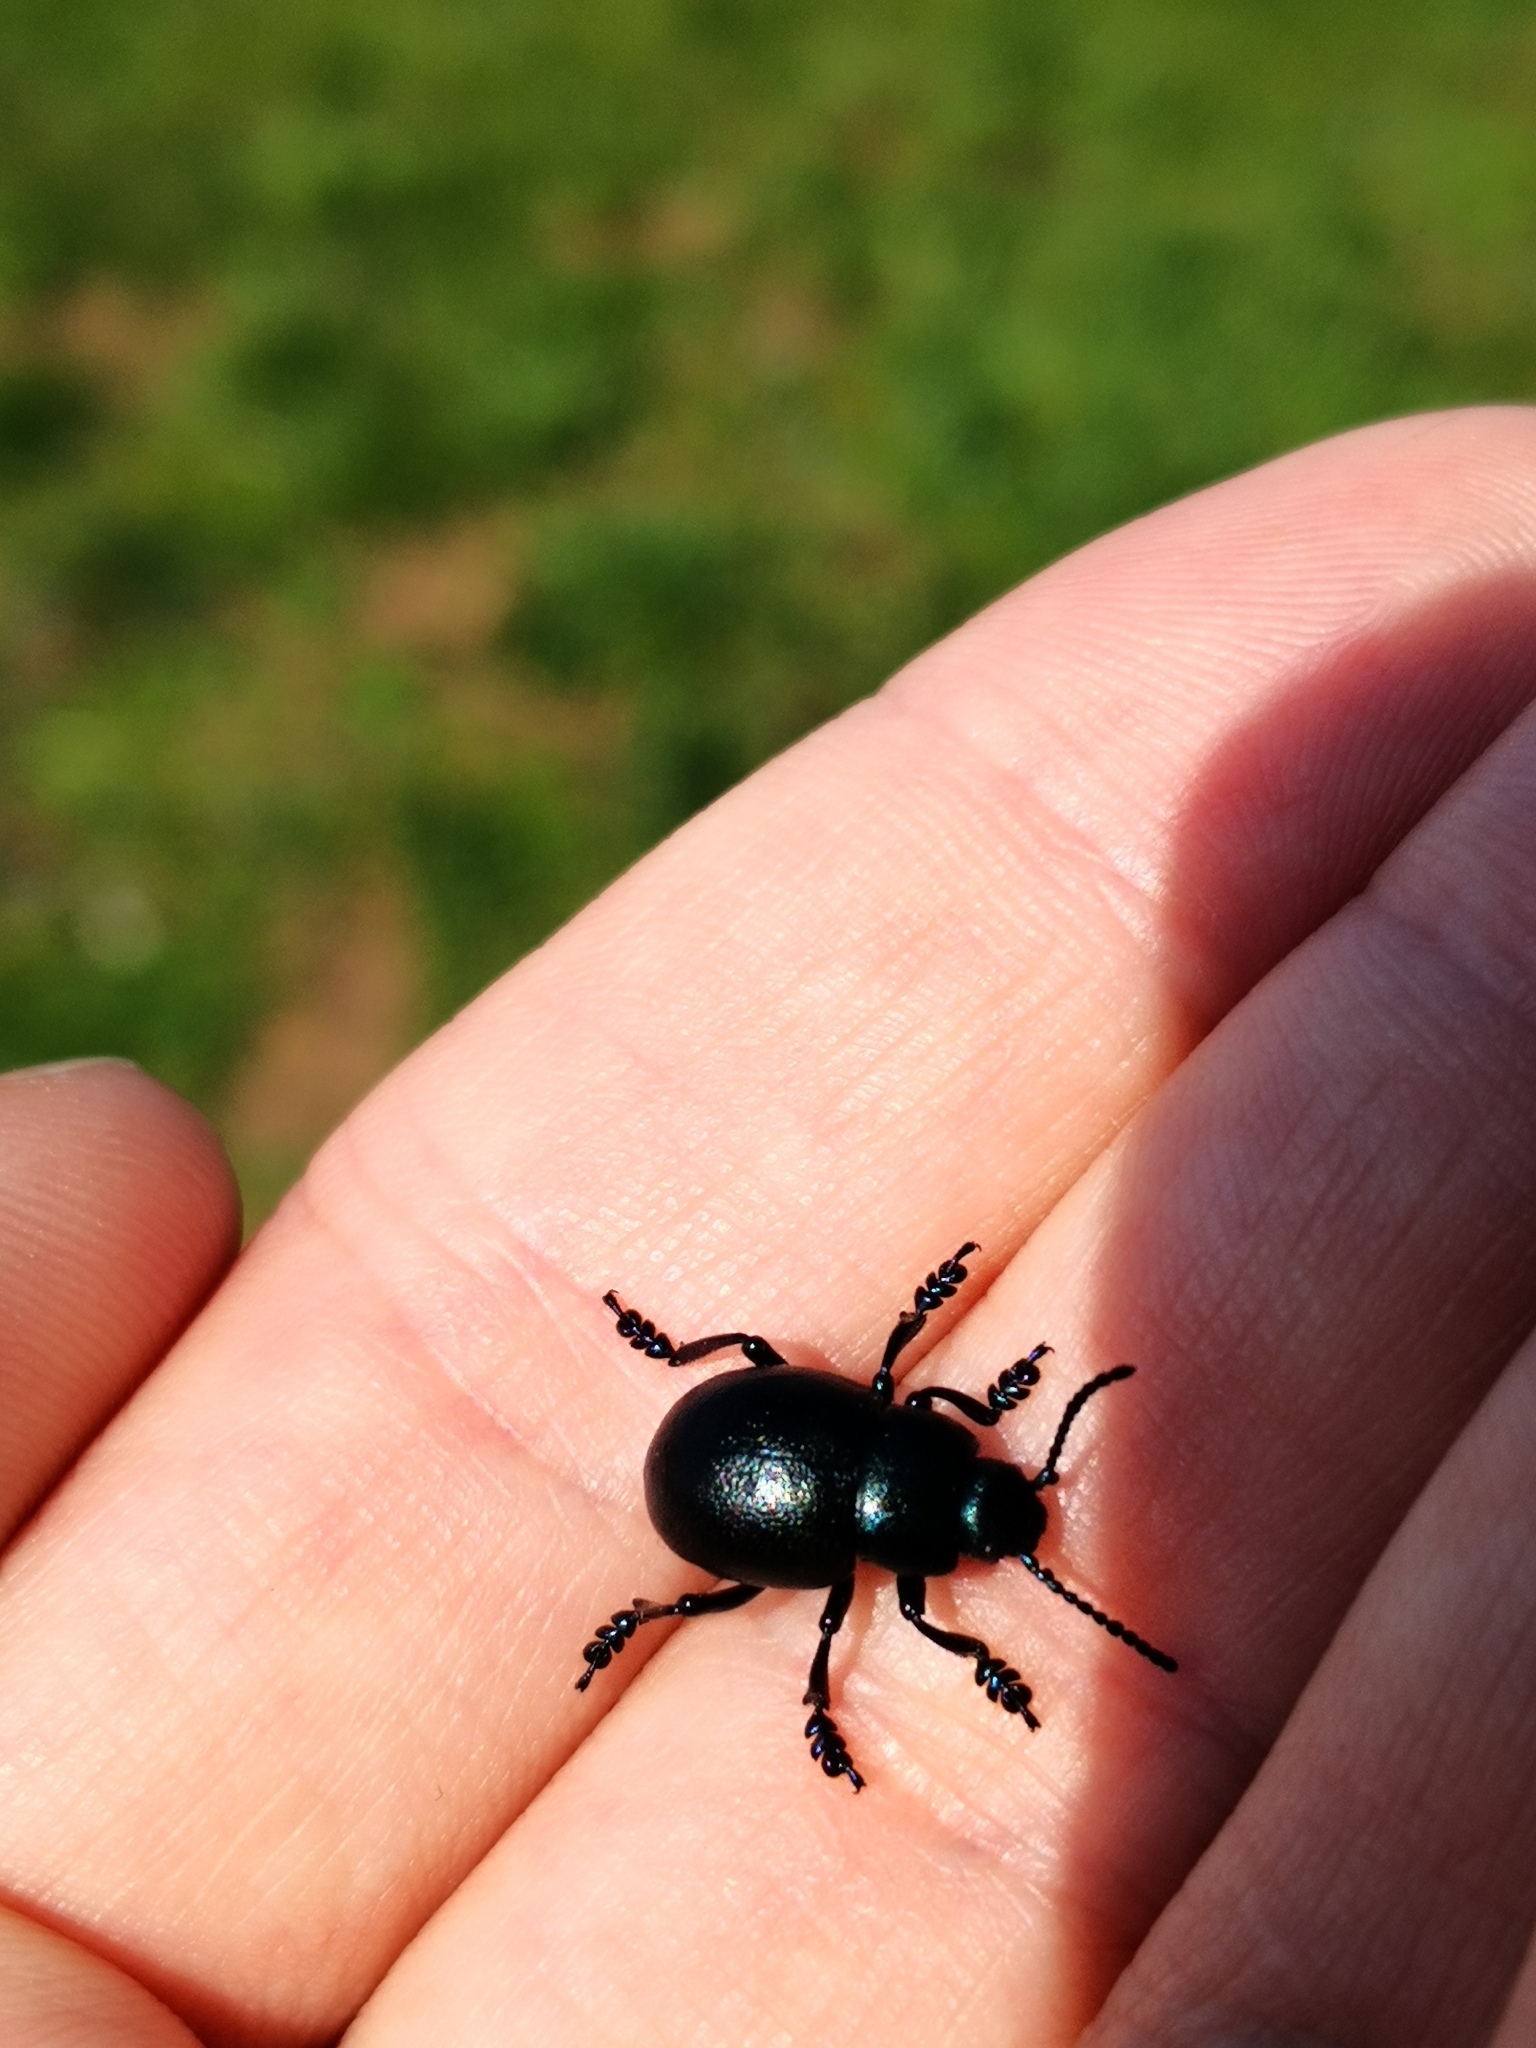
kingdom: Animalia
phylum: Arthropoda
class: Insecta
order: Coleoptera
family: Chrysomelidae
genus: Timarcha
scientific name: Timarcha goettingensis
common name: Small bloody-nosed beetle
